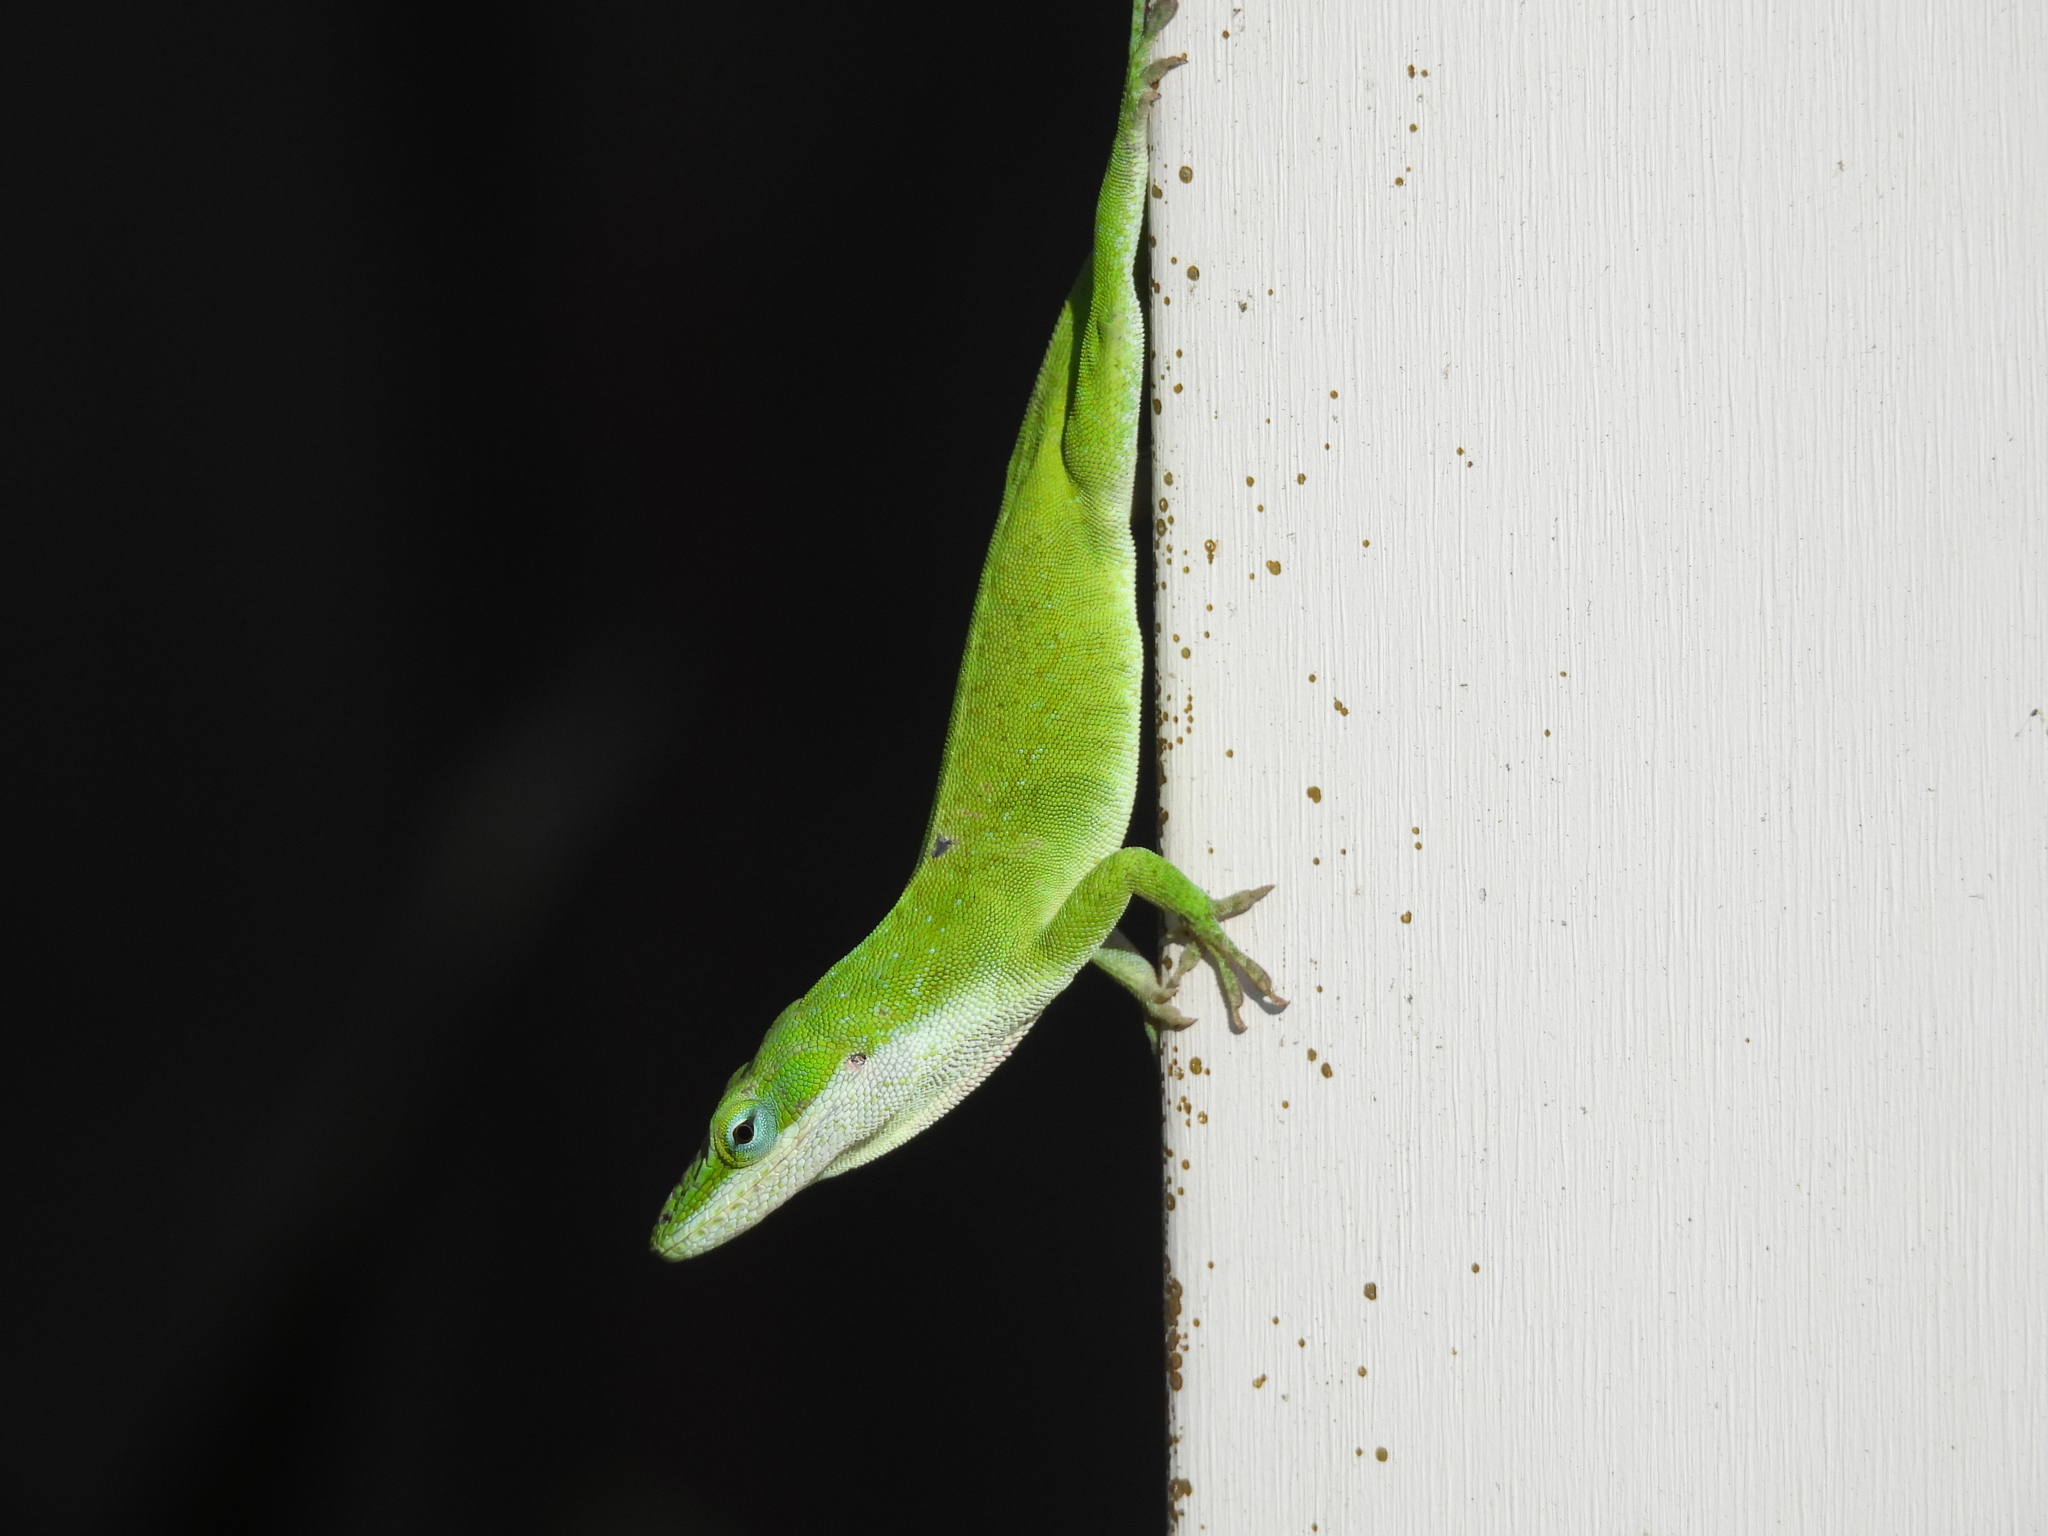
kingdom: Animalia
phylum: Chordata
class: Squamata
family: Dactyloidae
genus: Anolis
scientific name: Anolis carolinensis
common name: Green anole
